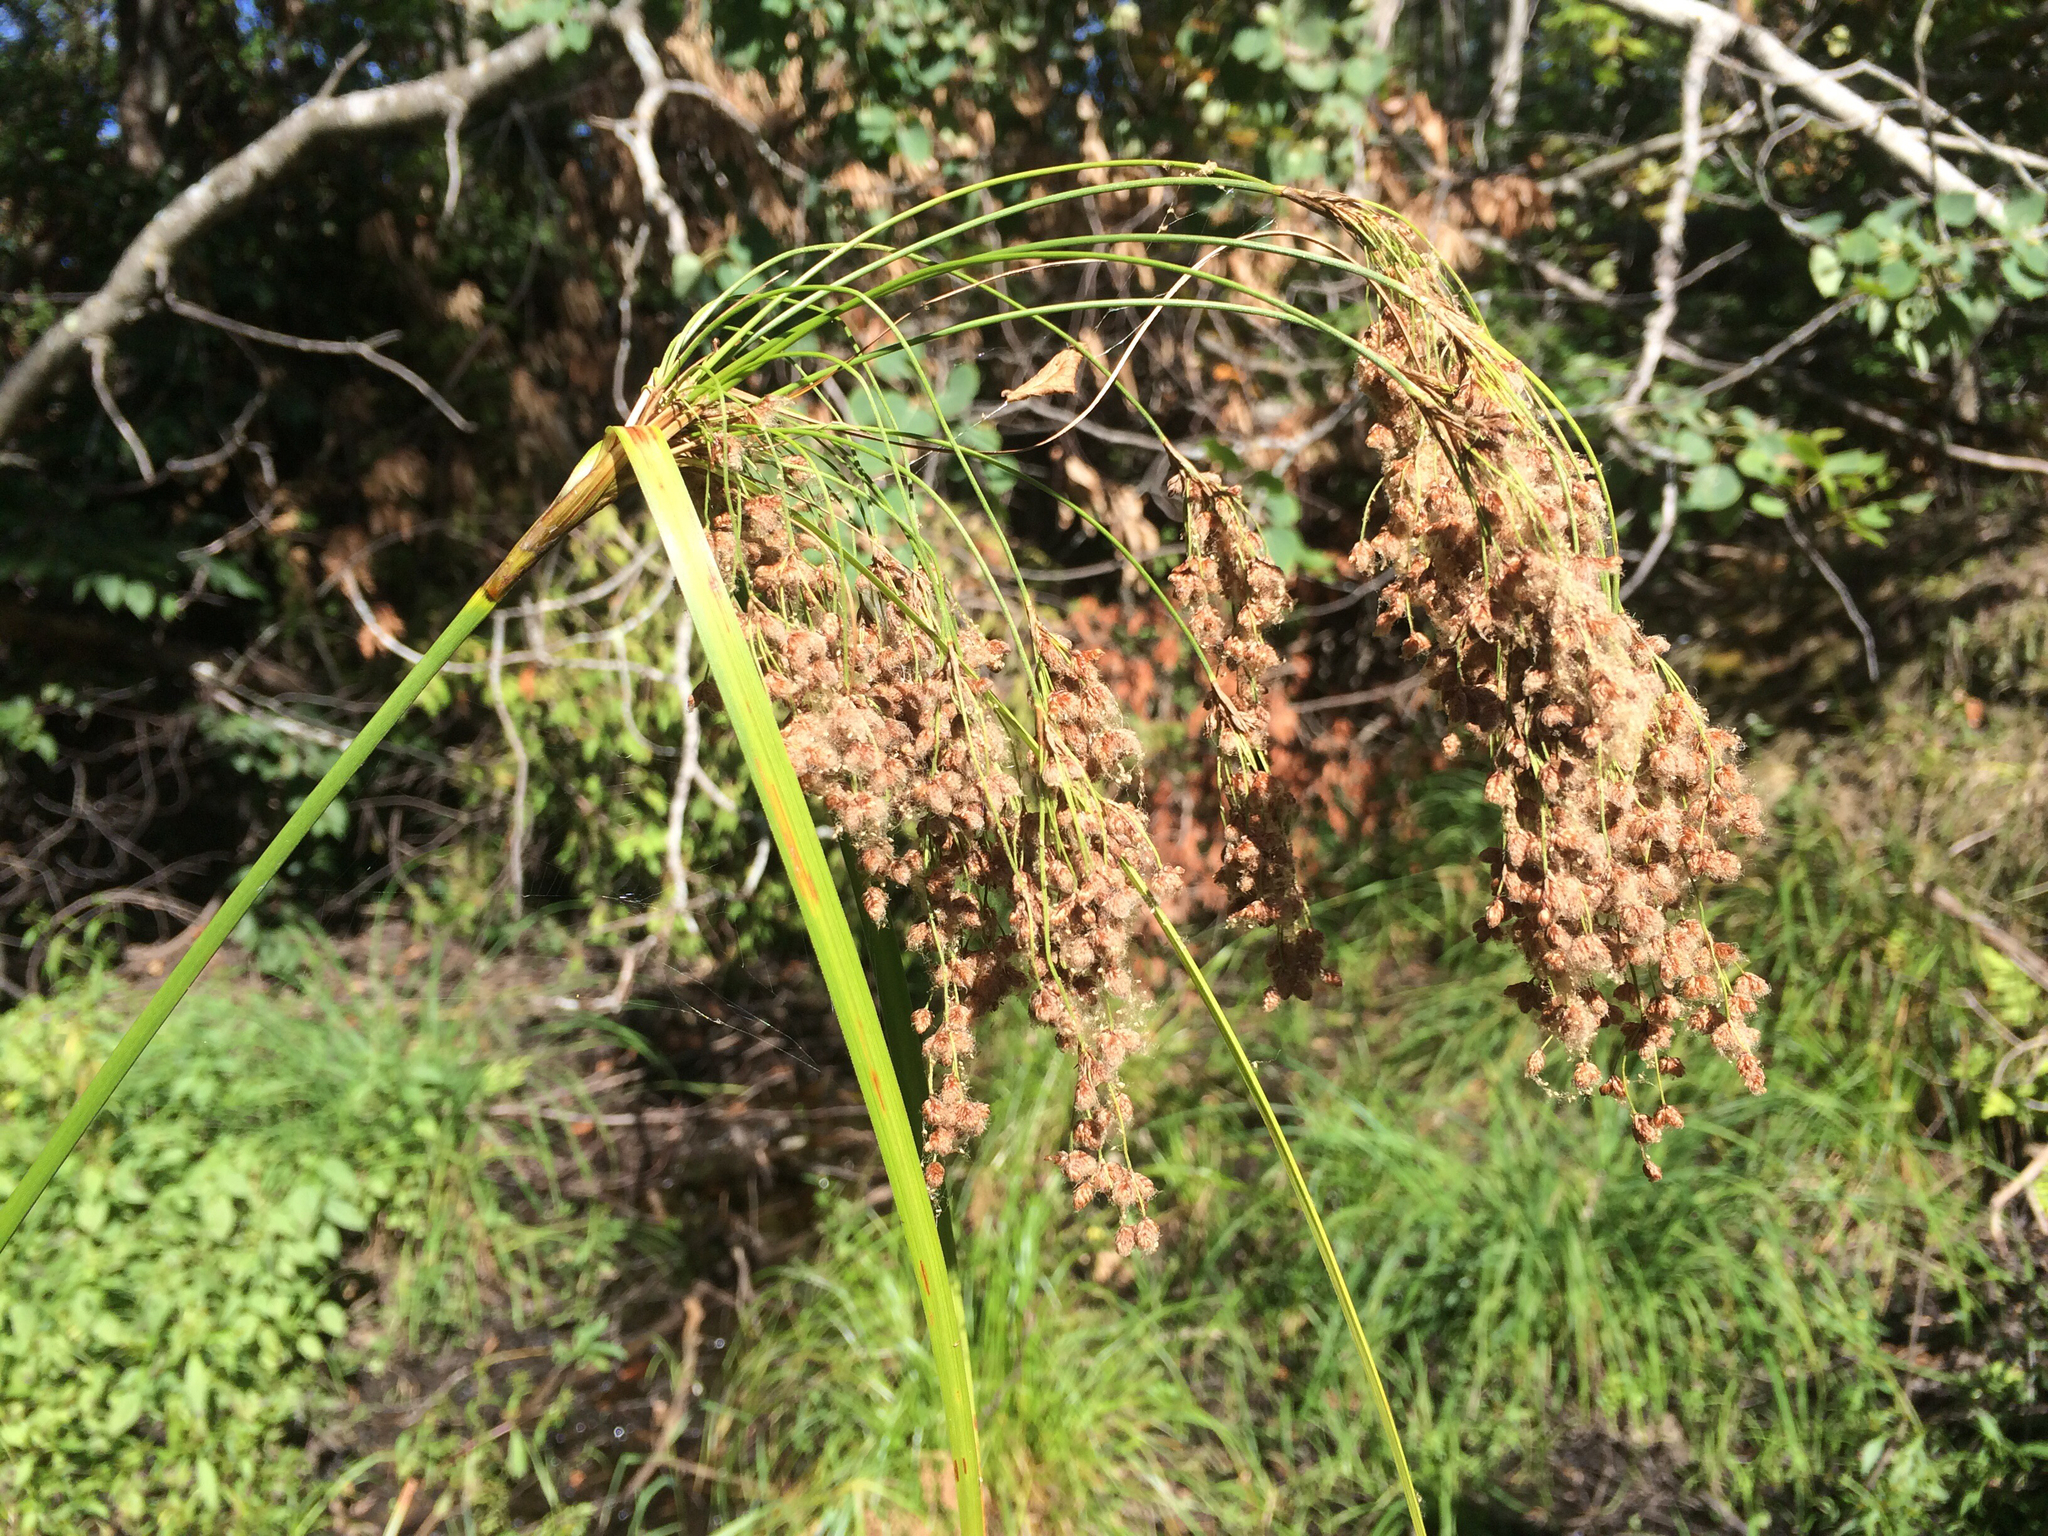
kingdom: Plantae
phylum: Tracheophyta
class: Liliopsida
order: Poales
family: Cyperaceae
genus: Scirpus
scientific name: Scirpus cyperinus
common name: Black-sheathed bulrush
